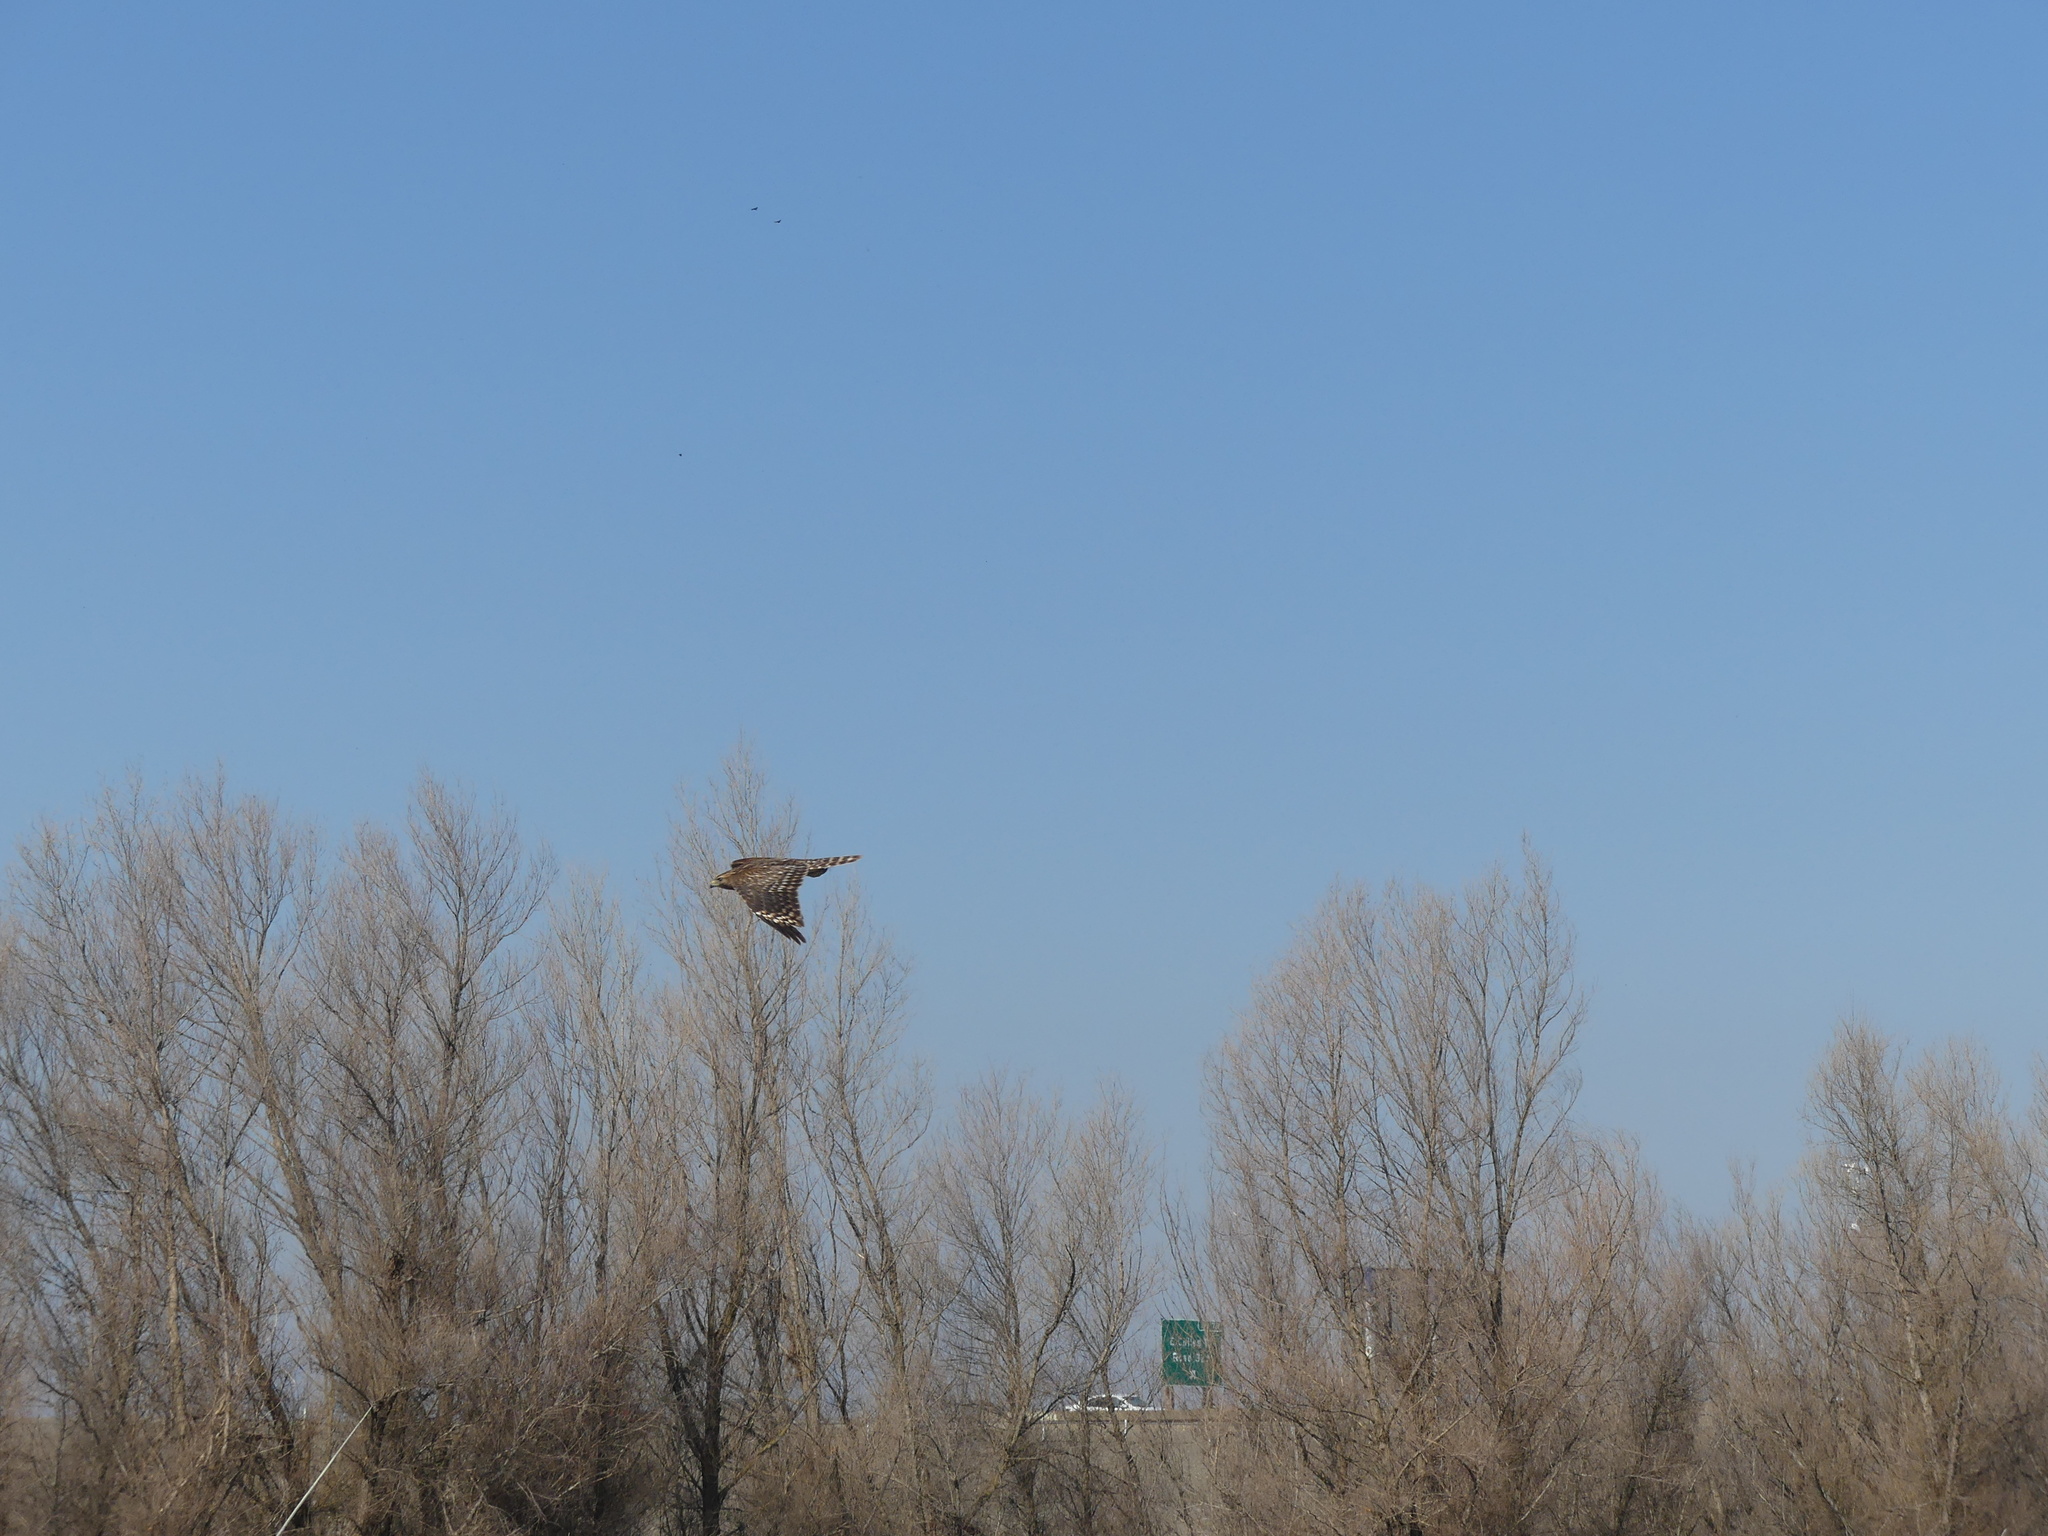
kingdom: Animalia
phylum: Chordata
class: Aves
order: Accipitriformes
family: Accipitridae
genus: Buteo
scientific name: Buteo lineatus
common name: Red-shouldered hawk
